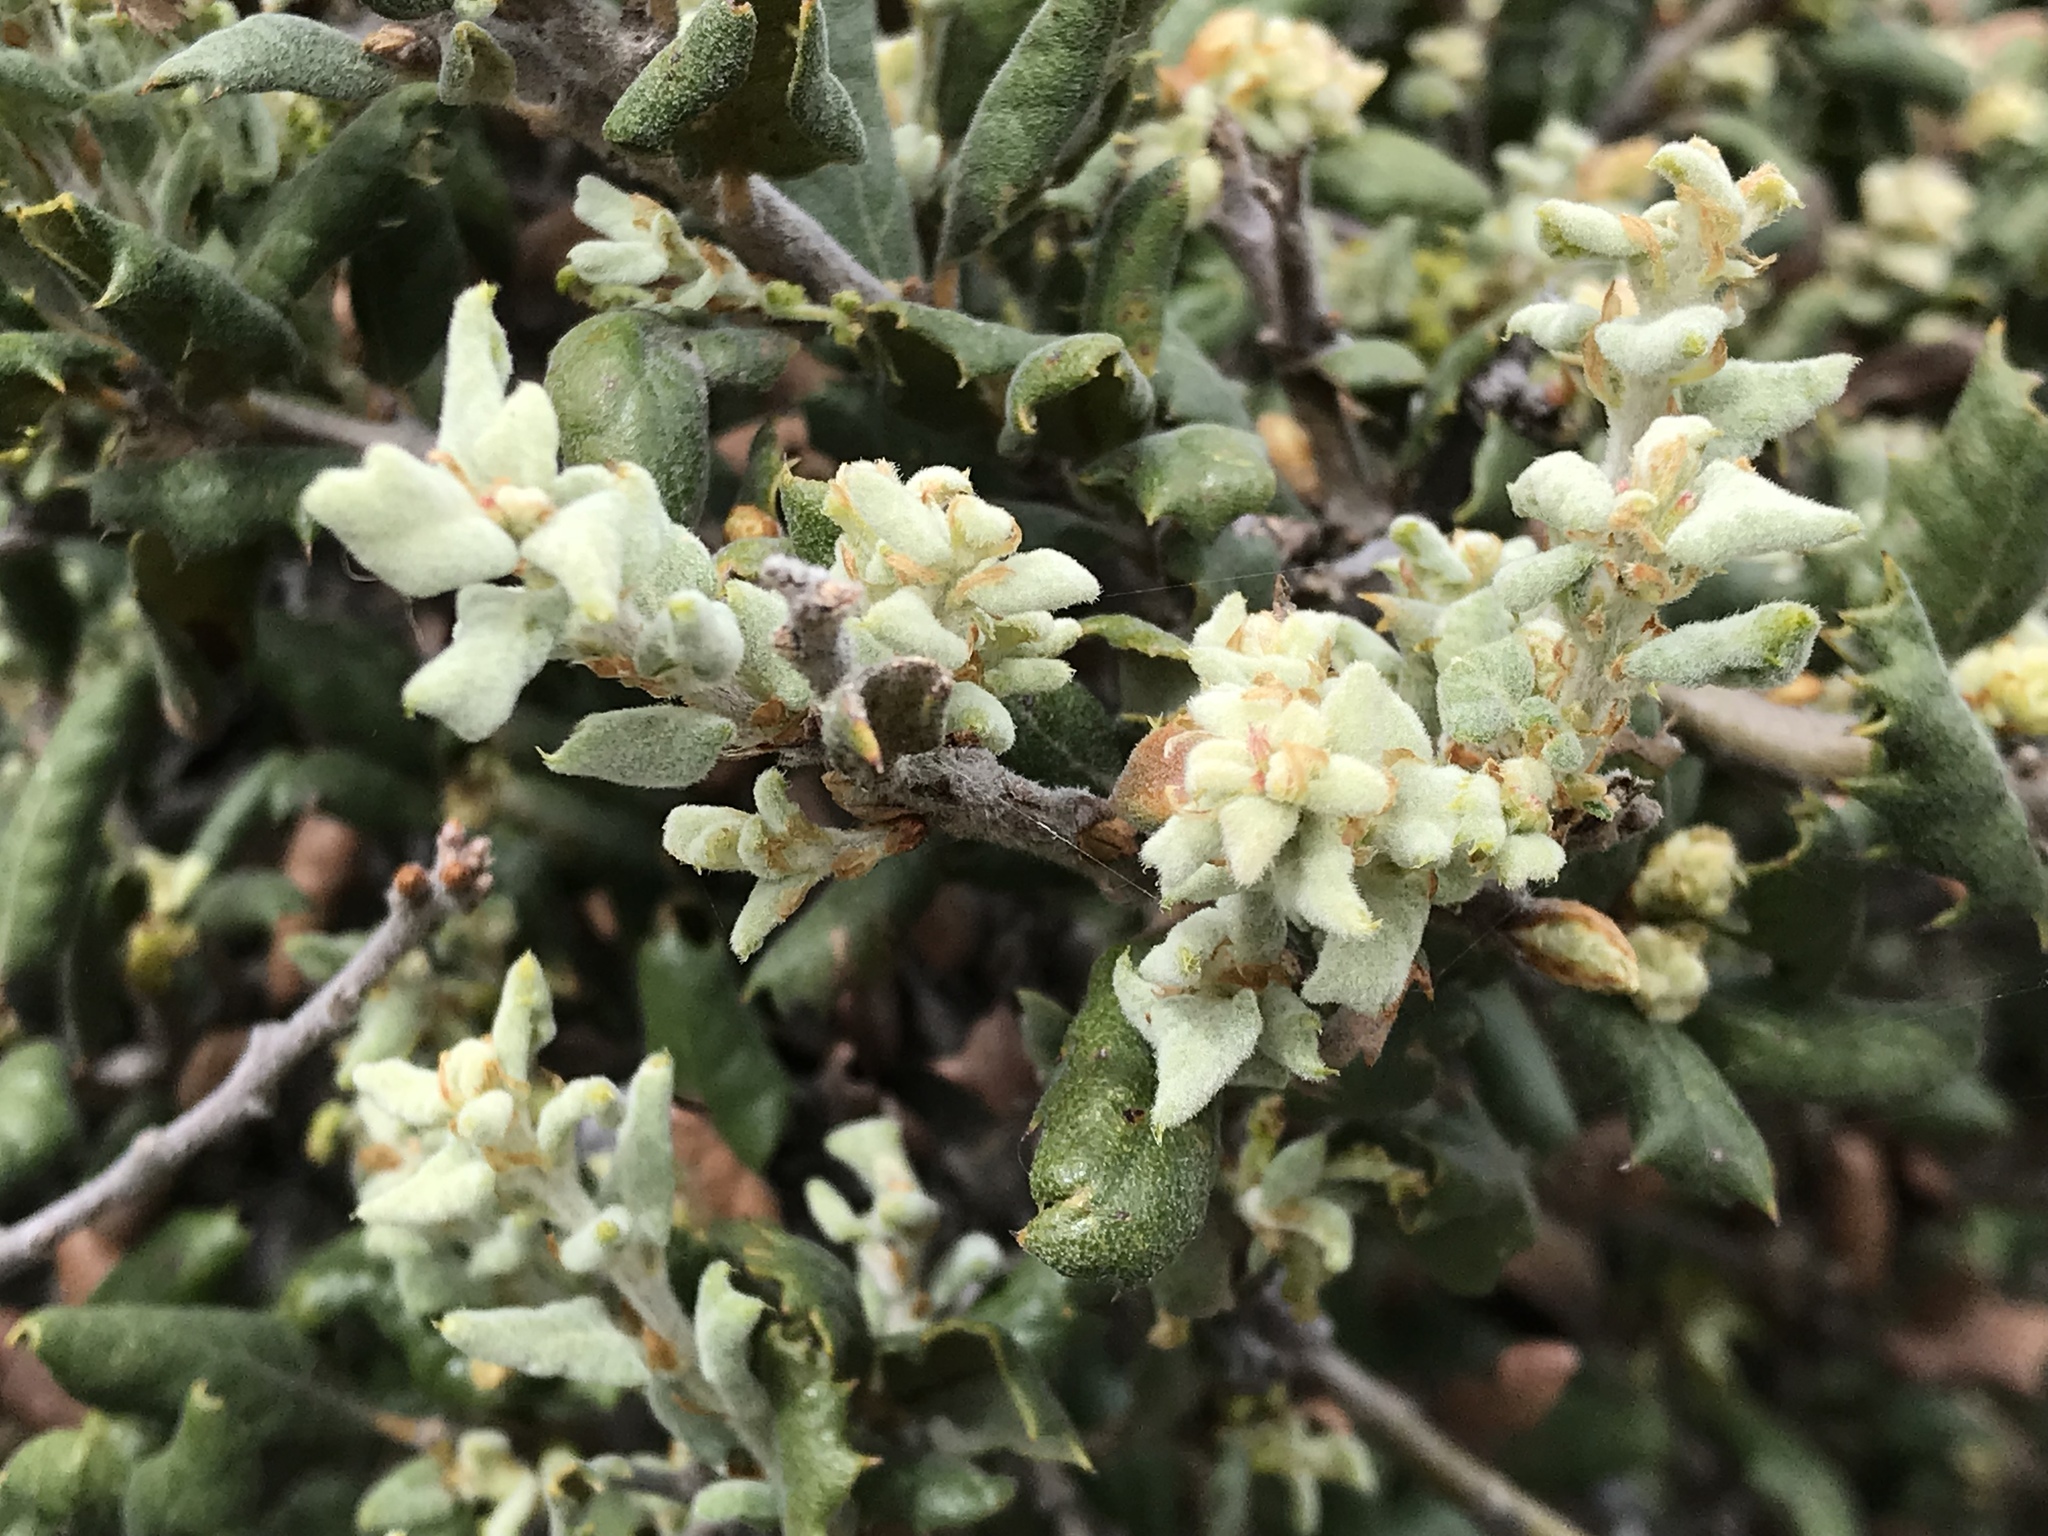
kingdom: Plantae
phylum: Tracheophyta
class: Magnoliopsida
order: Fagales
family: Fagaceae
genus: Quercus
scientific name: Quercus durata
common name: Leather oak
